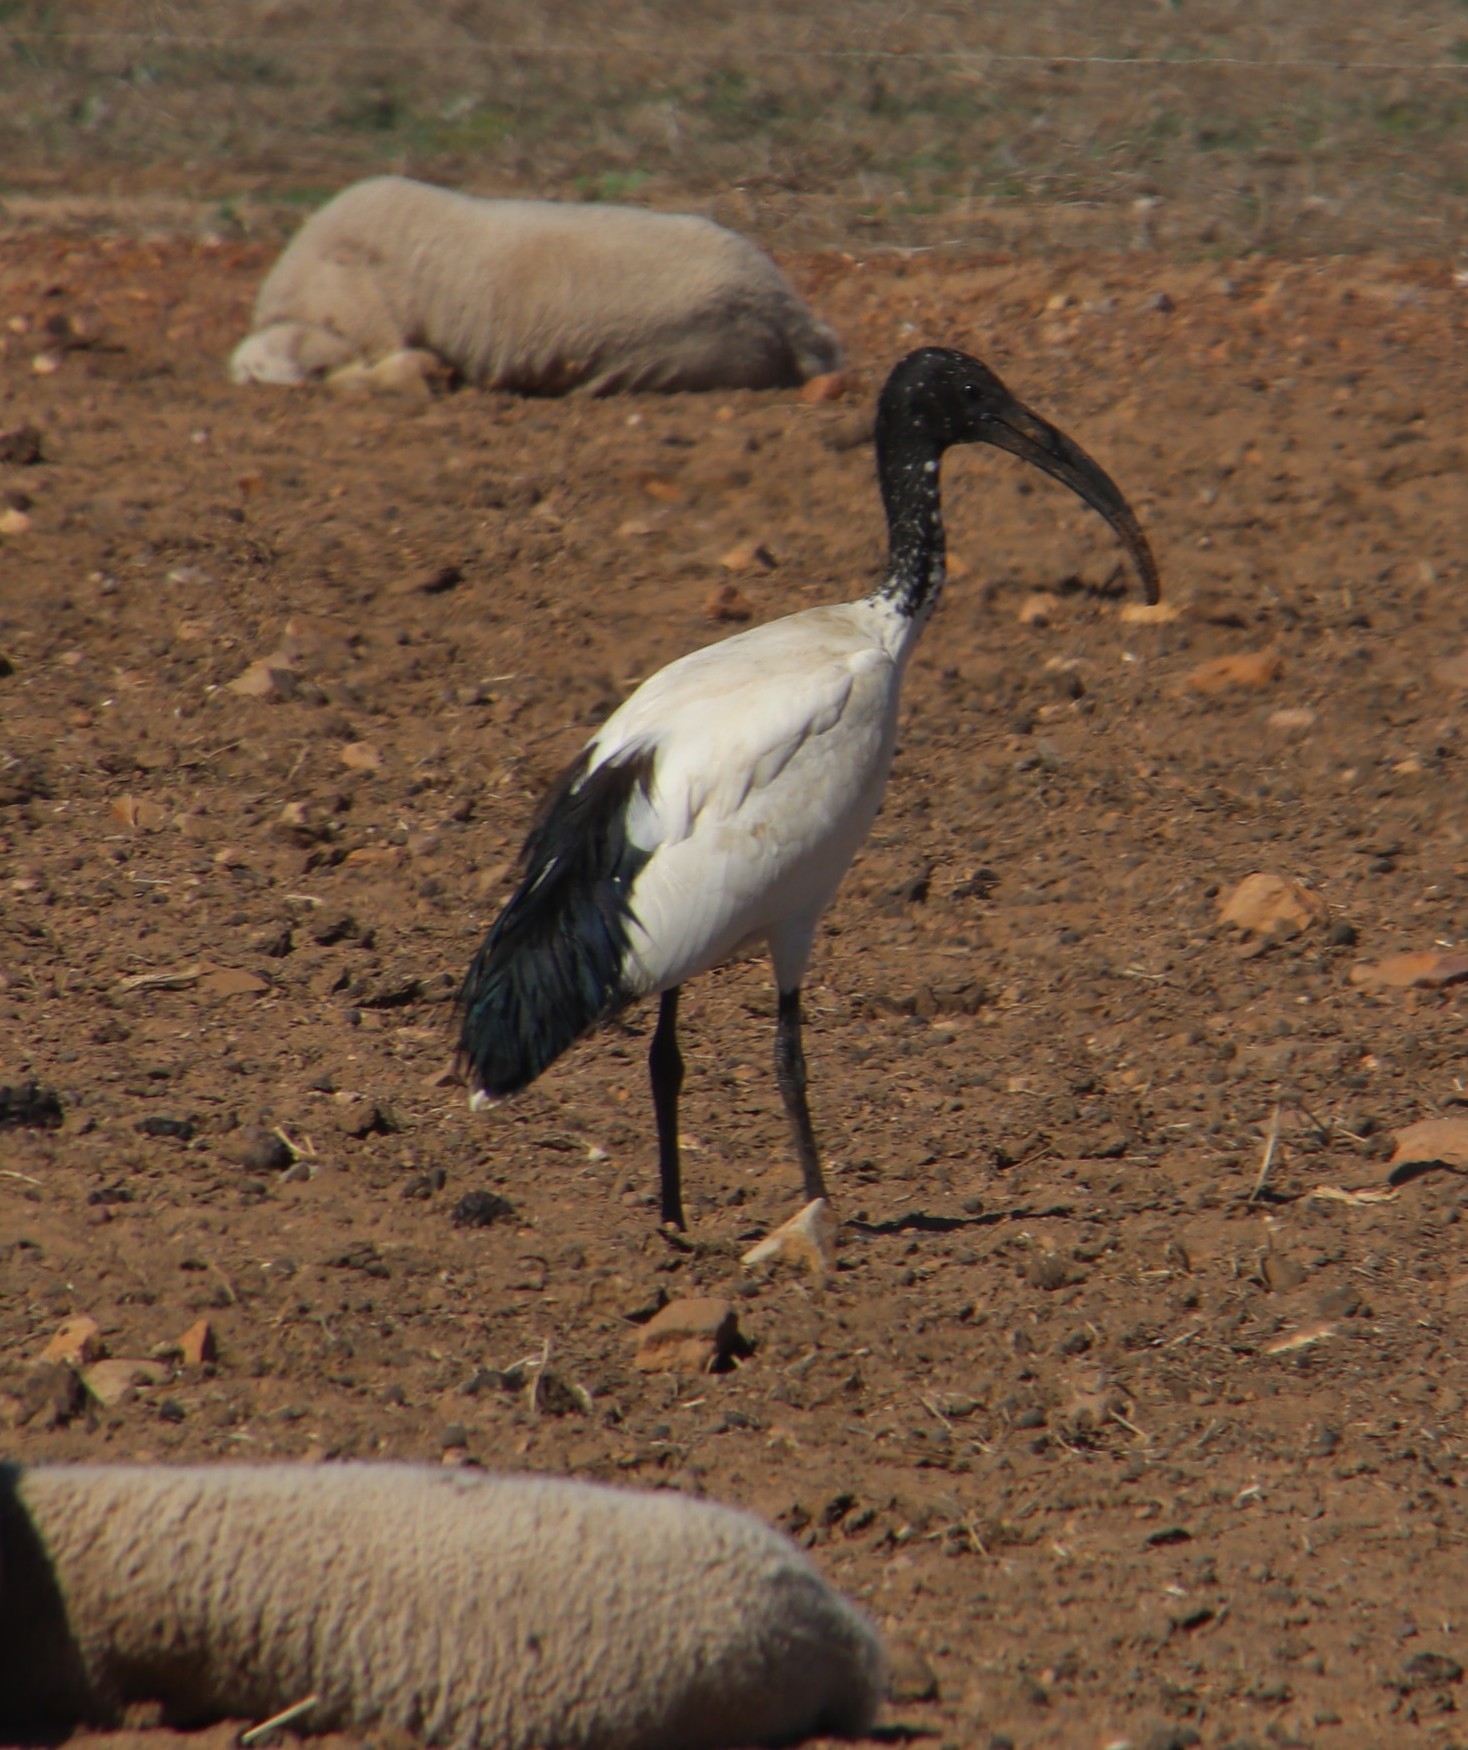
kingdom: Animalia
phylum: Chordata
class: Aves
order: Pelecaniformes
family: Threskiornithidae
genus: Threskiornis
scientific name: Threskiornis aethiopicus
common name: Sacred ibis
